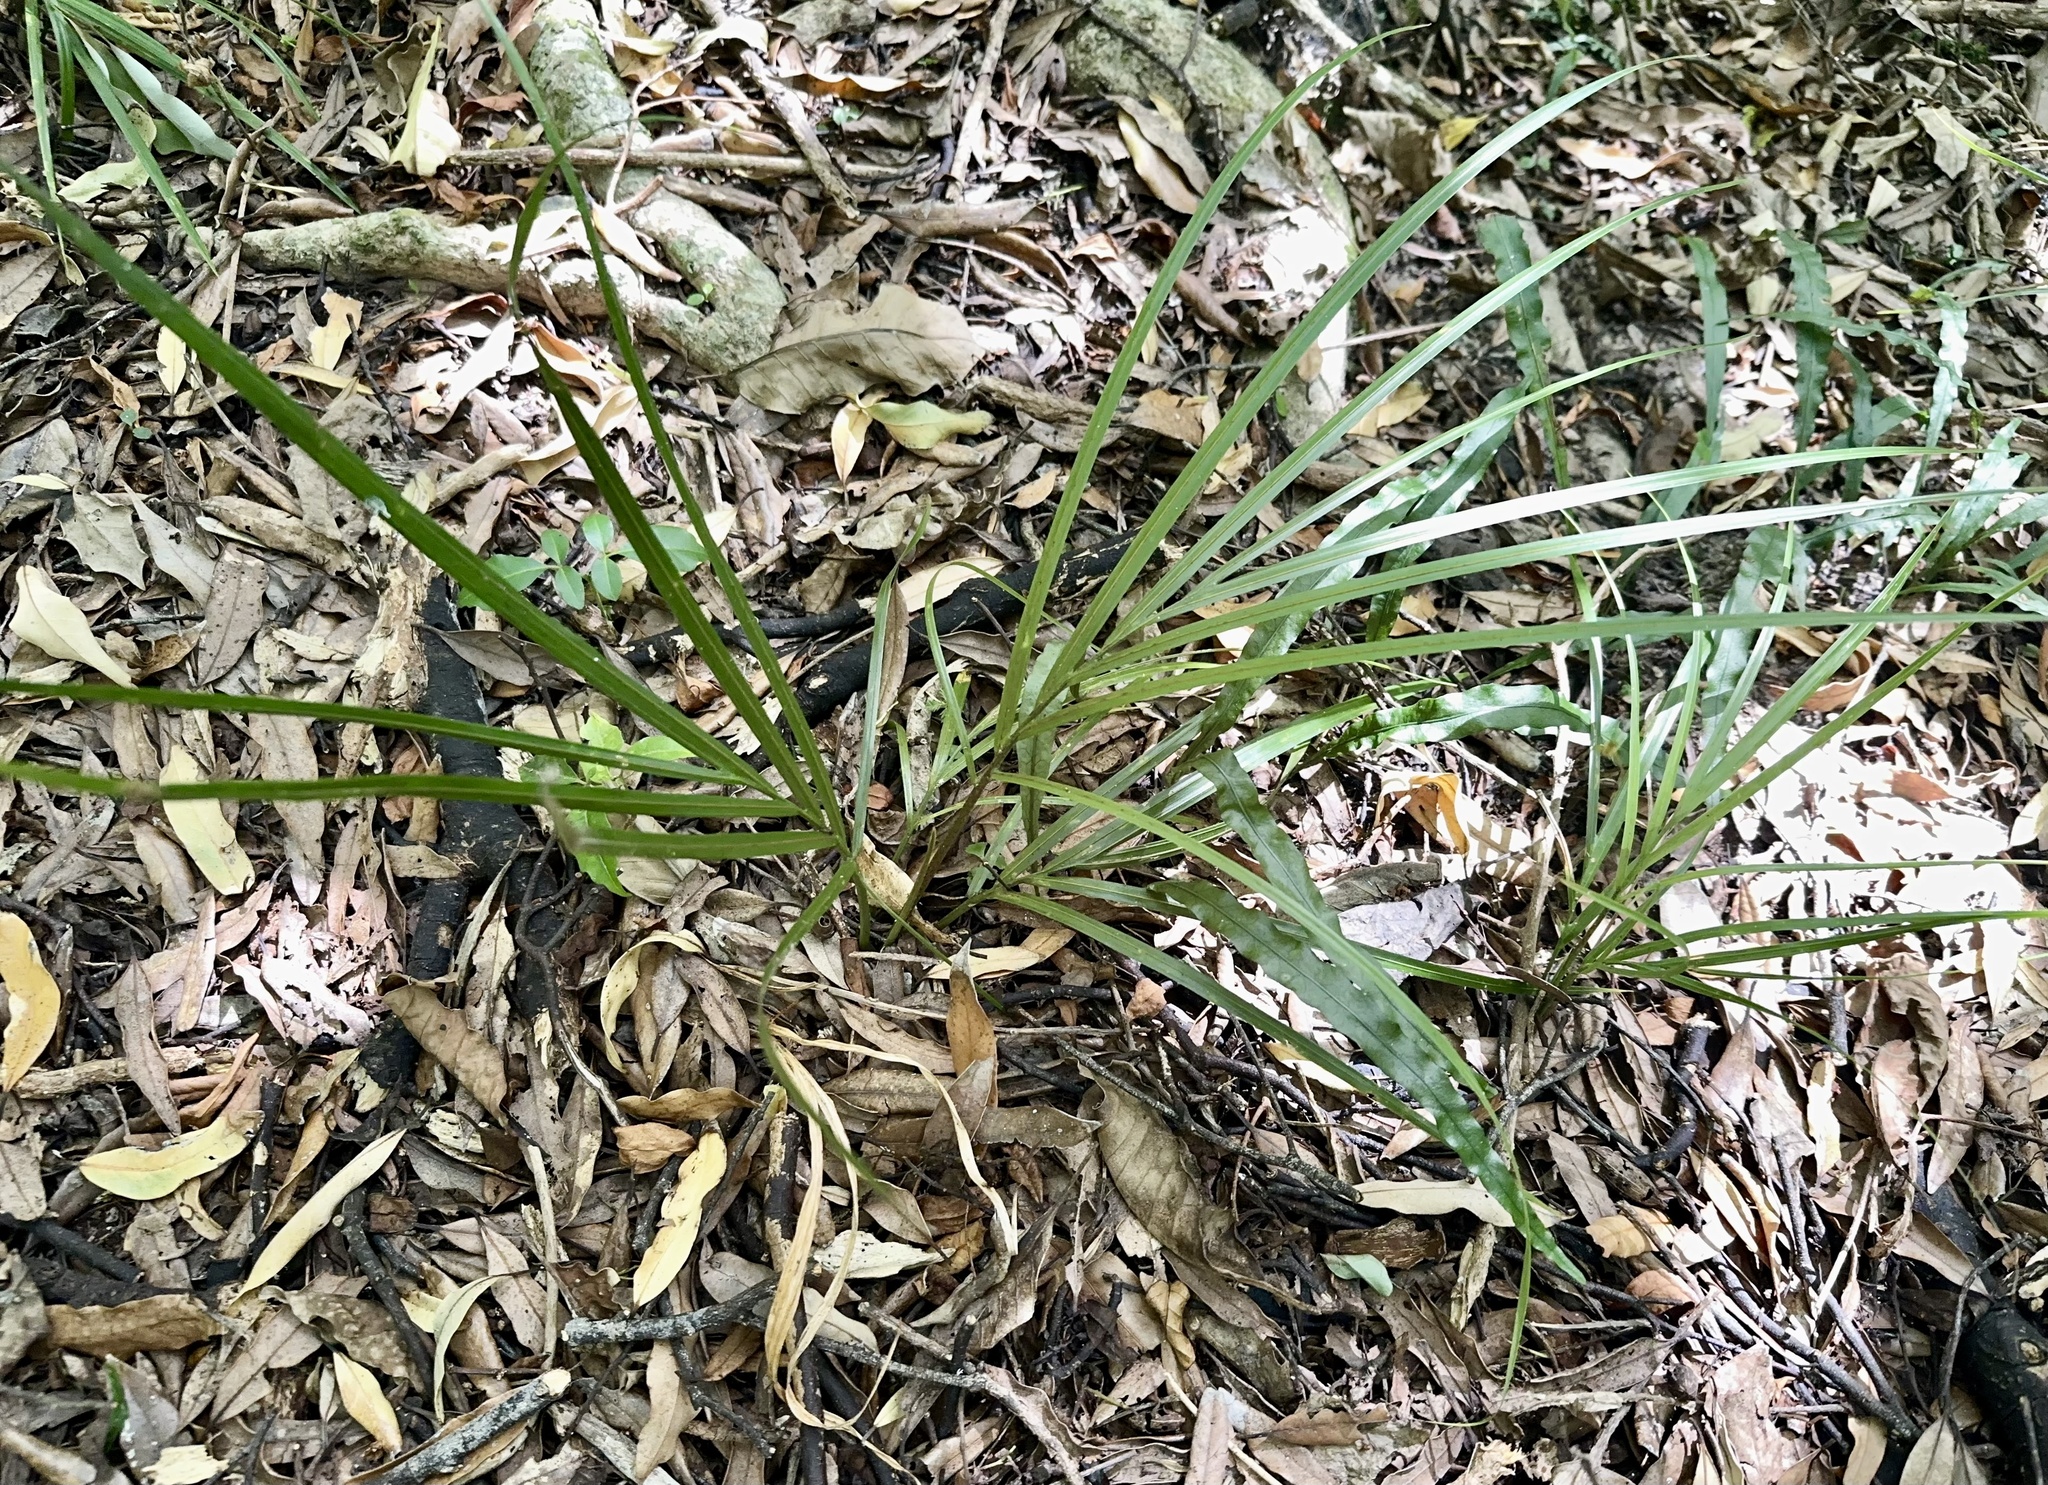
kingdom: Plantae
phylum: Tracheophyta
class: Liliopsida
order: Arecales
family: Arecaceae
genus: Rhopalostylis
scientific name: Rhopalostylis sapida
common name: Feather-duster palm
